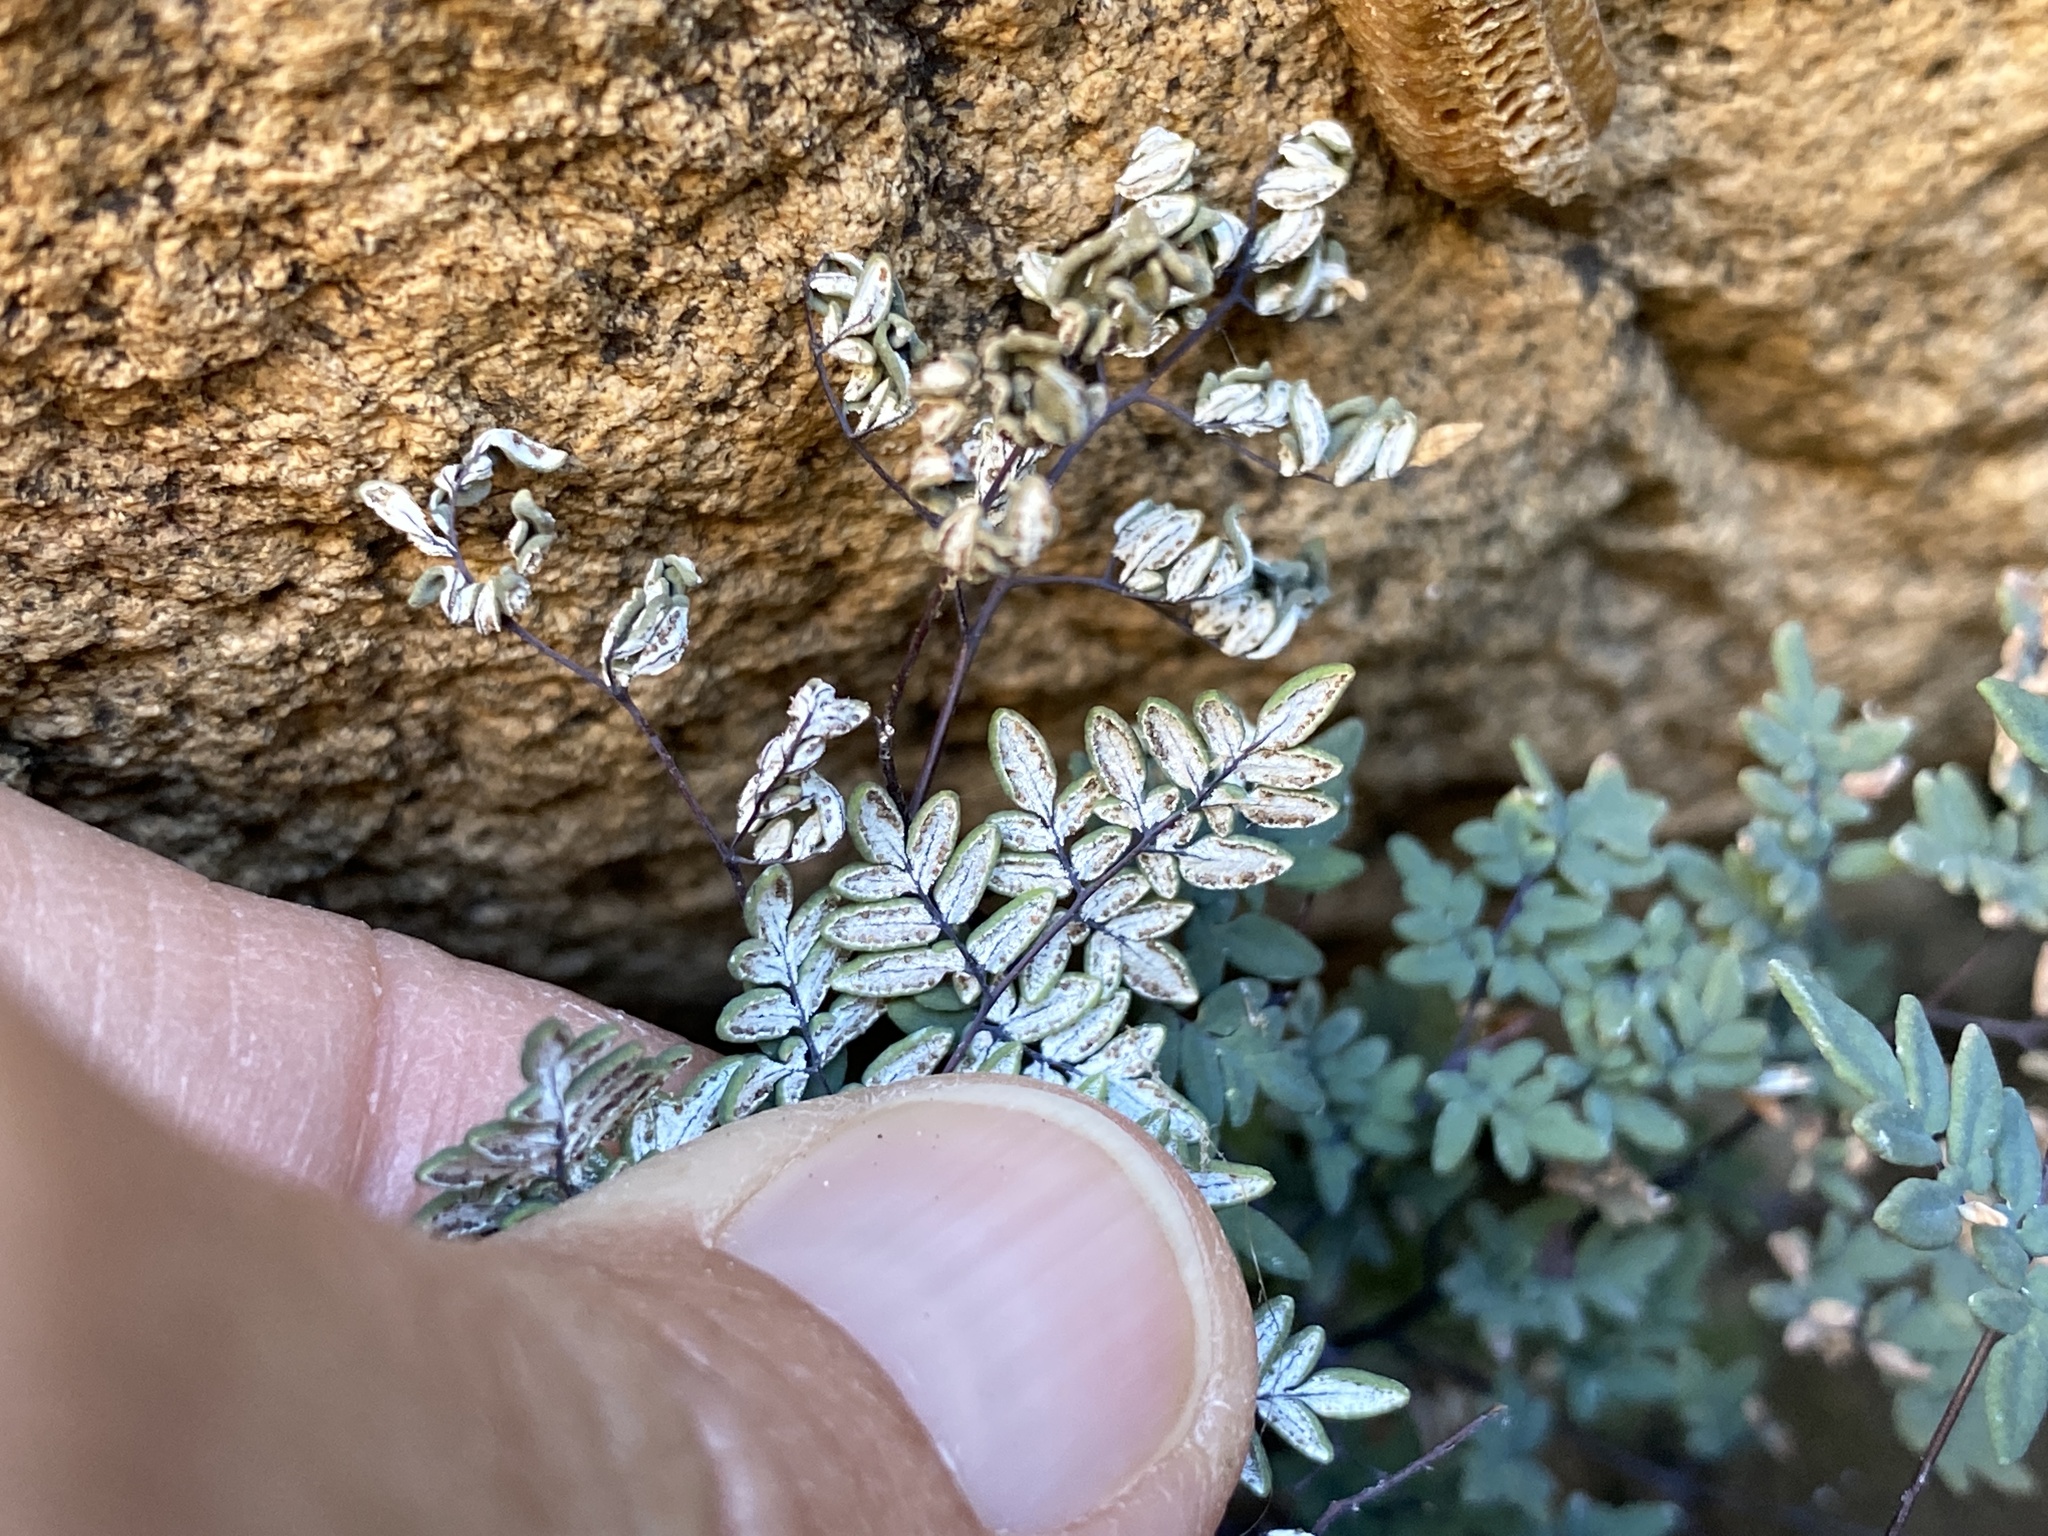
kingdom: Plantae
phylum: Tracheophyta
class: Polypodiopsida
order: Polypodiales
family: Pteridaceae
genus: Argyrochosma
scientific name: Argyrochosma limitanea
